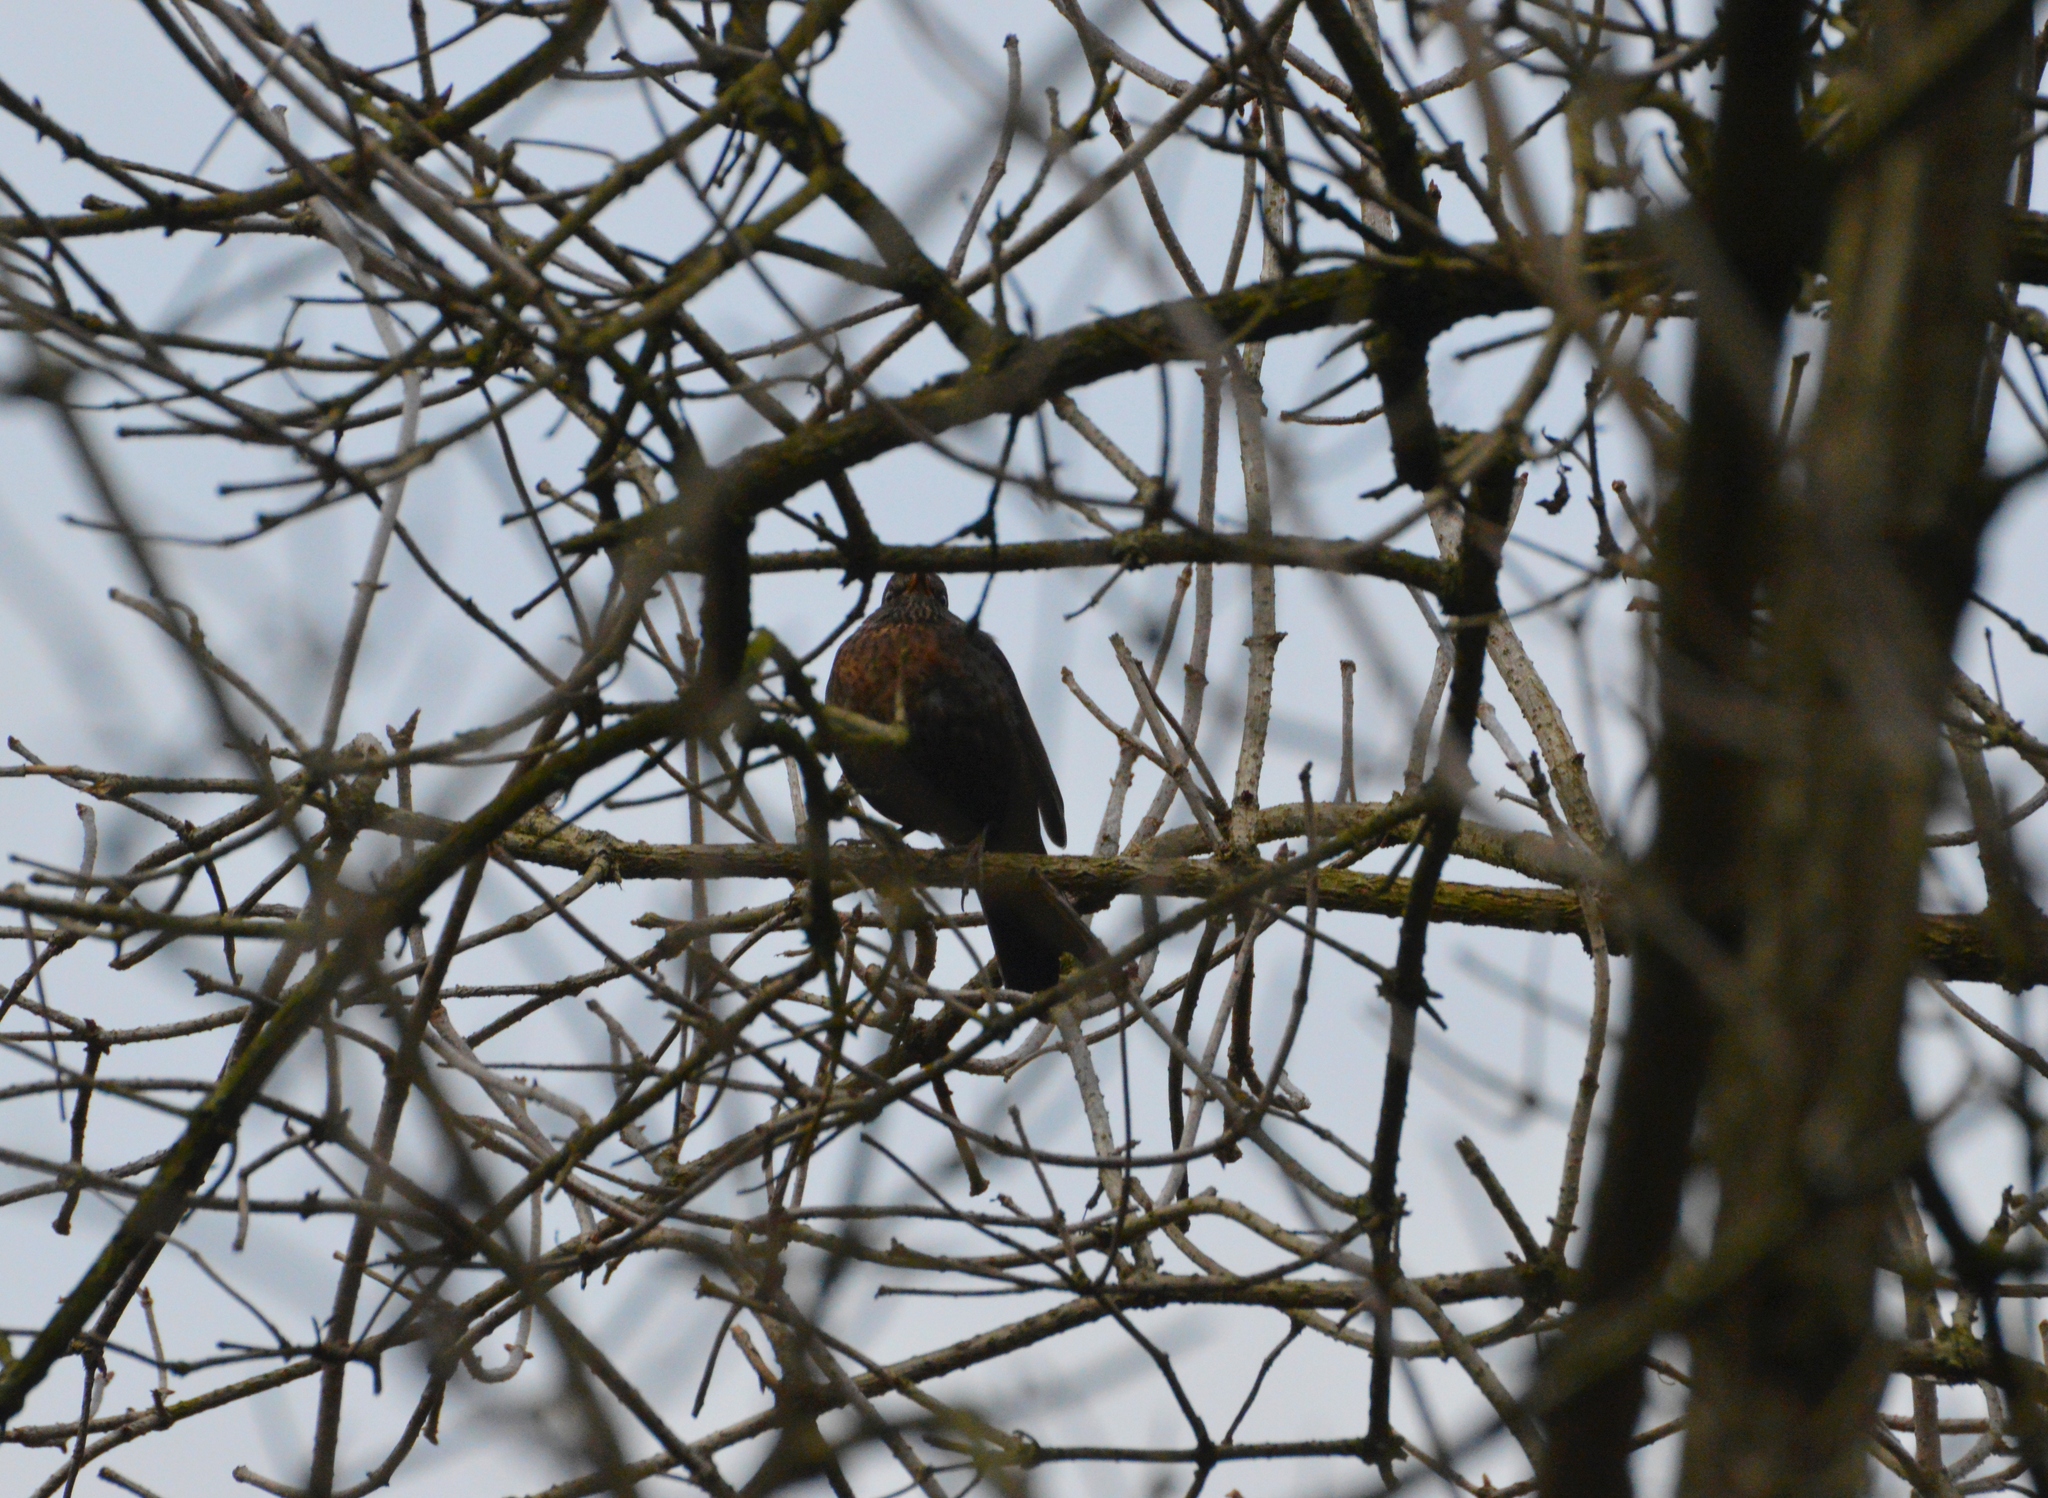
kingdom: Animalia
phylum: Chordata
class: Aves
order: Passeriformes
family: Turdidae
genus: Turdus
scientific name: Turdus merula
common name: Common blackbird
